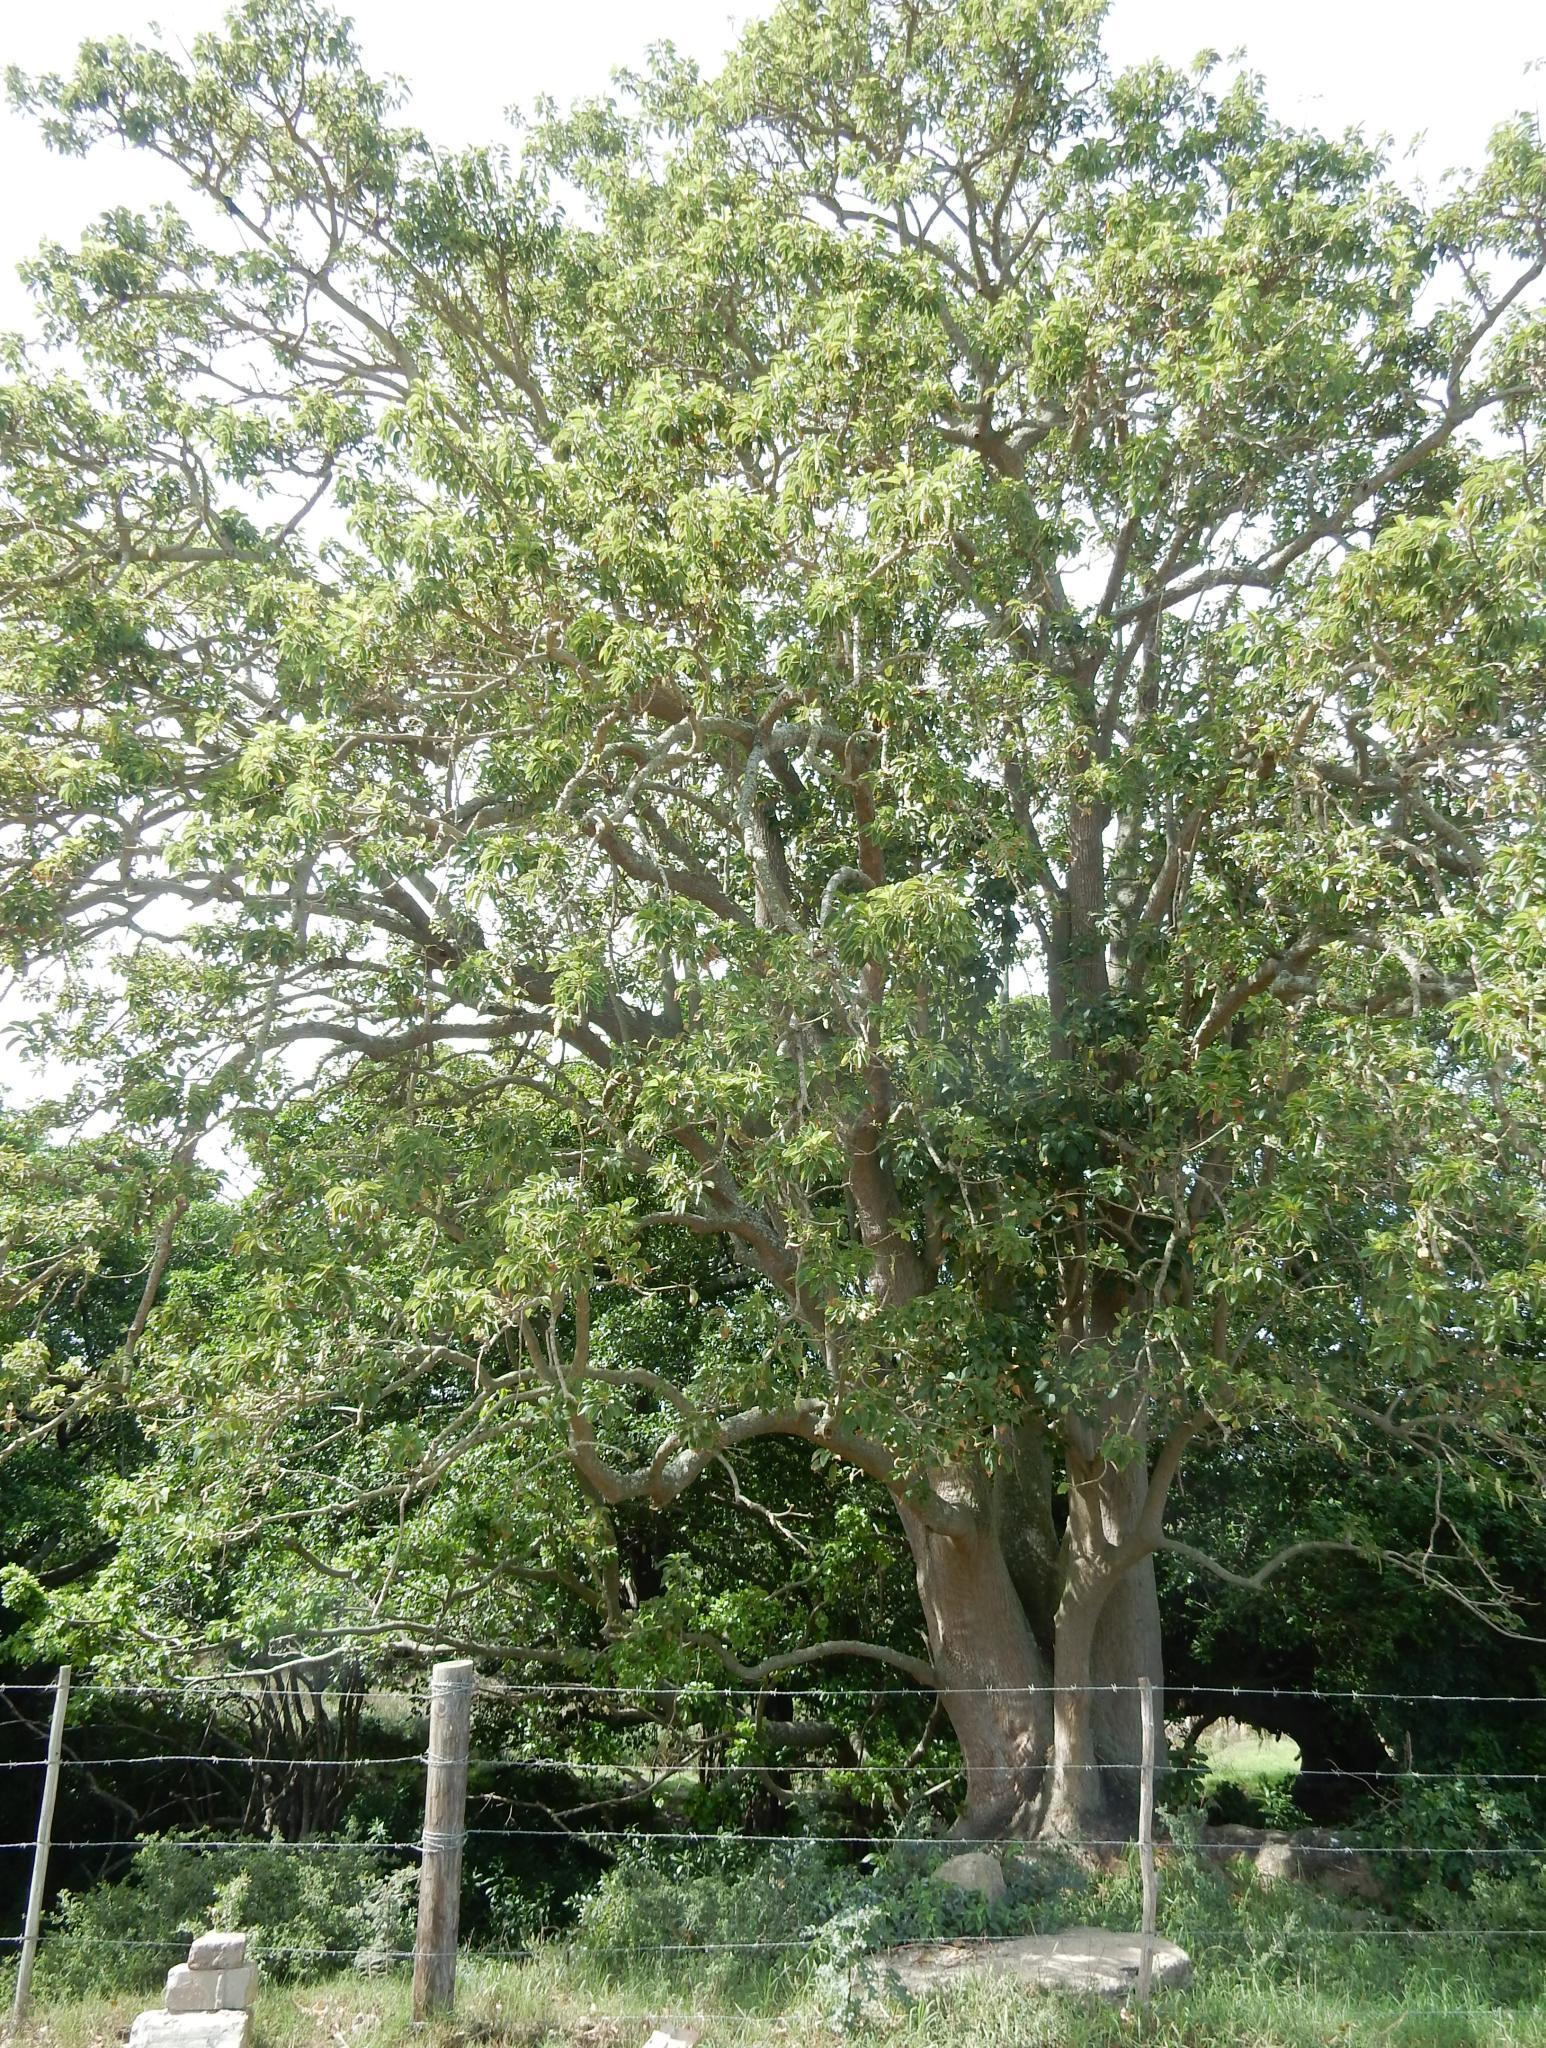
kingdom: Plantae
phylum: Tracheophyta
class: Magnoliopsida
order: Caryophyllales
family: Phytolaccaceae
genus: Phytolacca
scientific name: Phytolacca dioica
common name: Pokeweed
